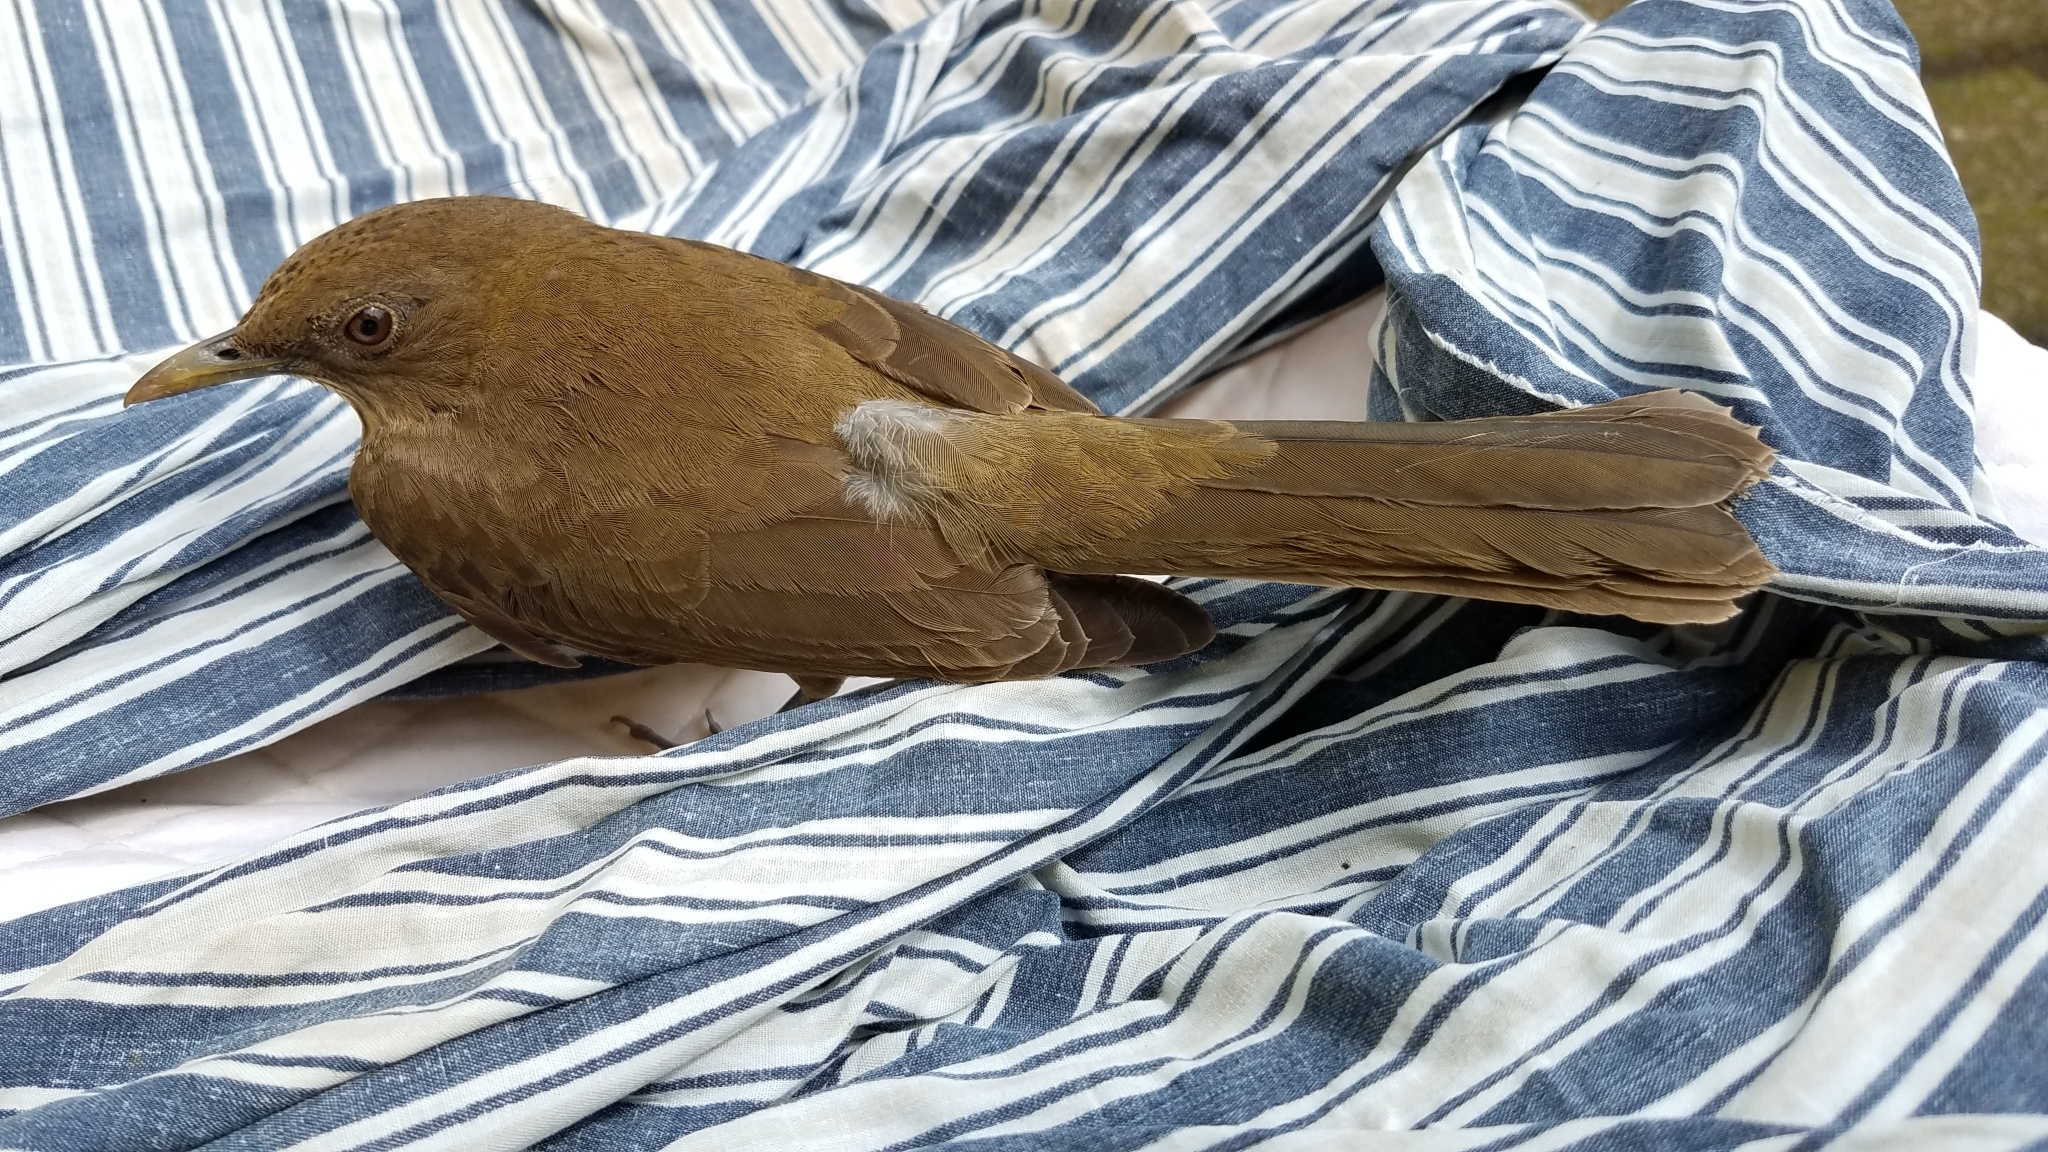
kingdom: Animalia
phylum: Chordata
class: Aves
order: Passeriformes
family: Turdidae
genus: Turdus
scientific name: Turdus grayi
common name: Clay-colored thrush
